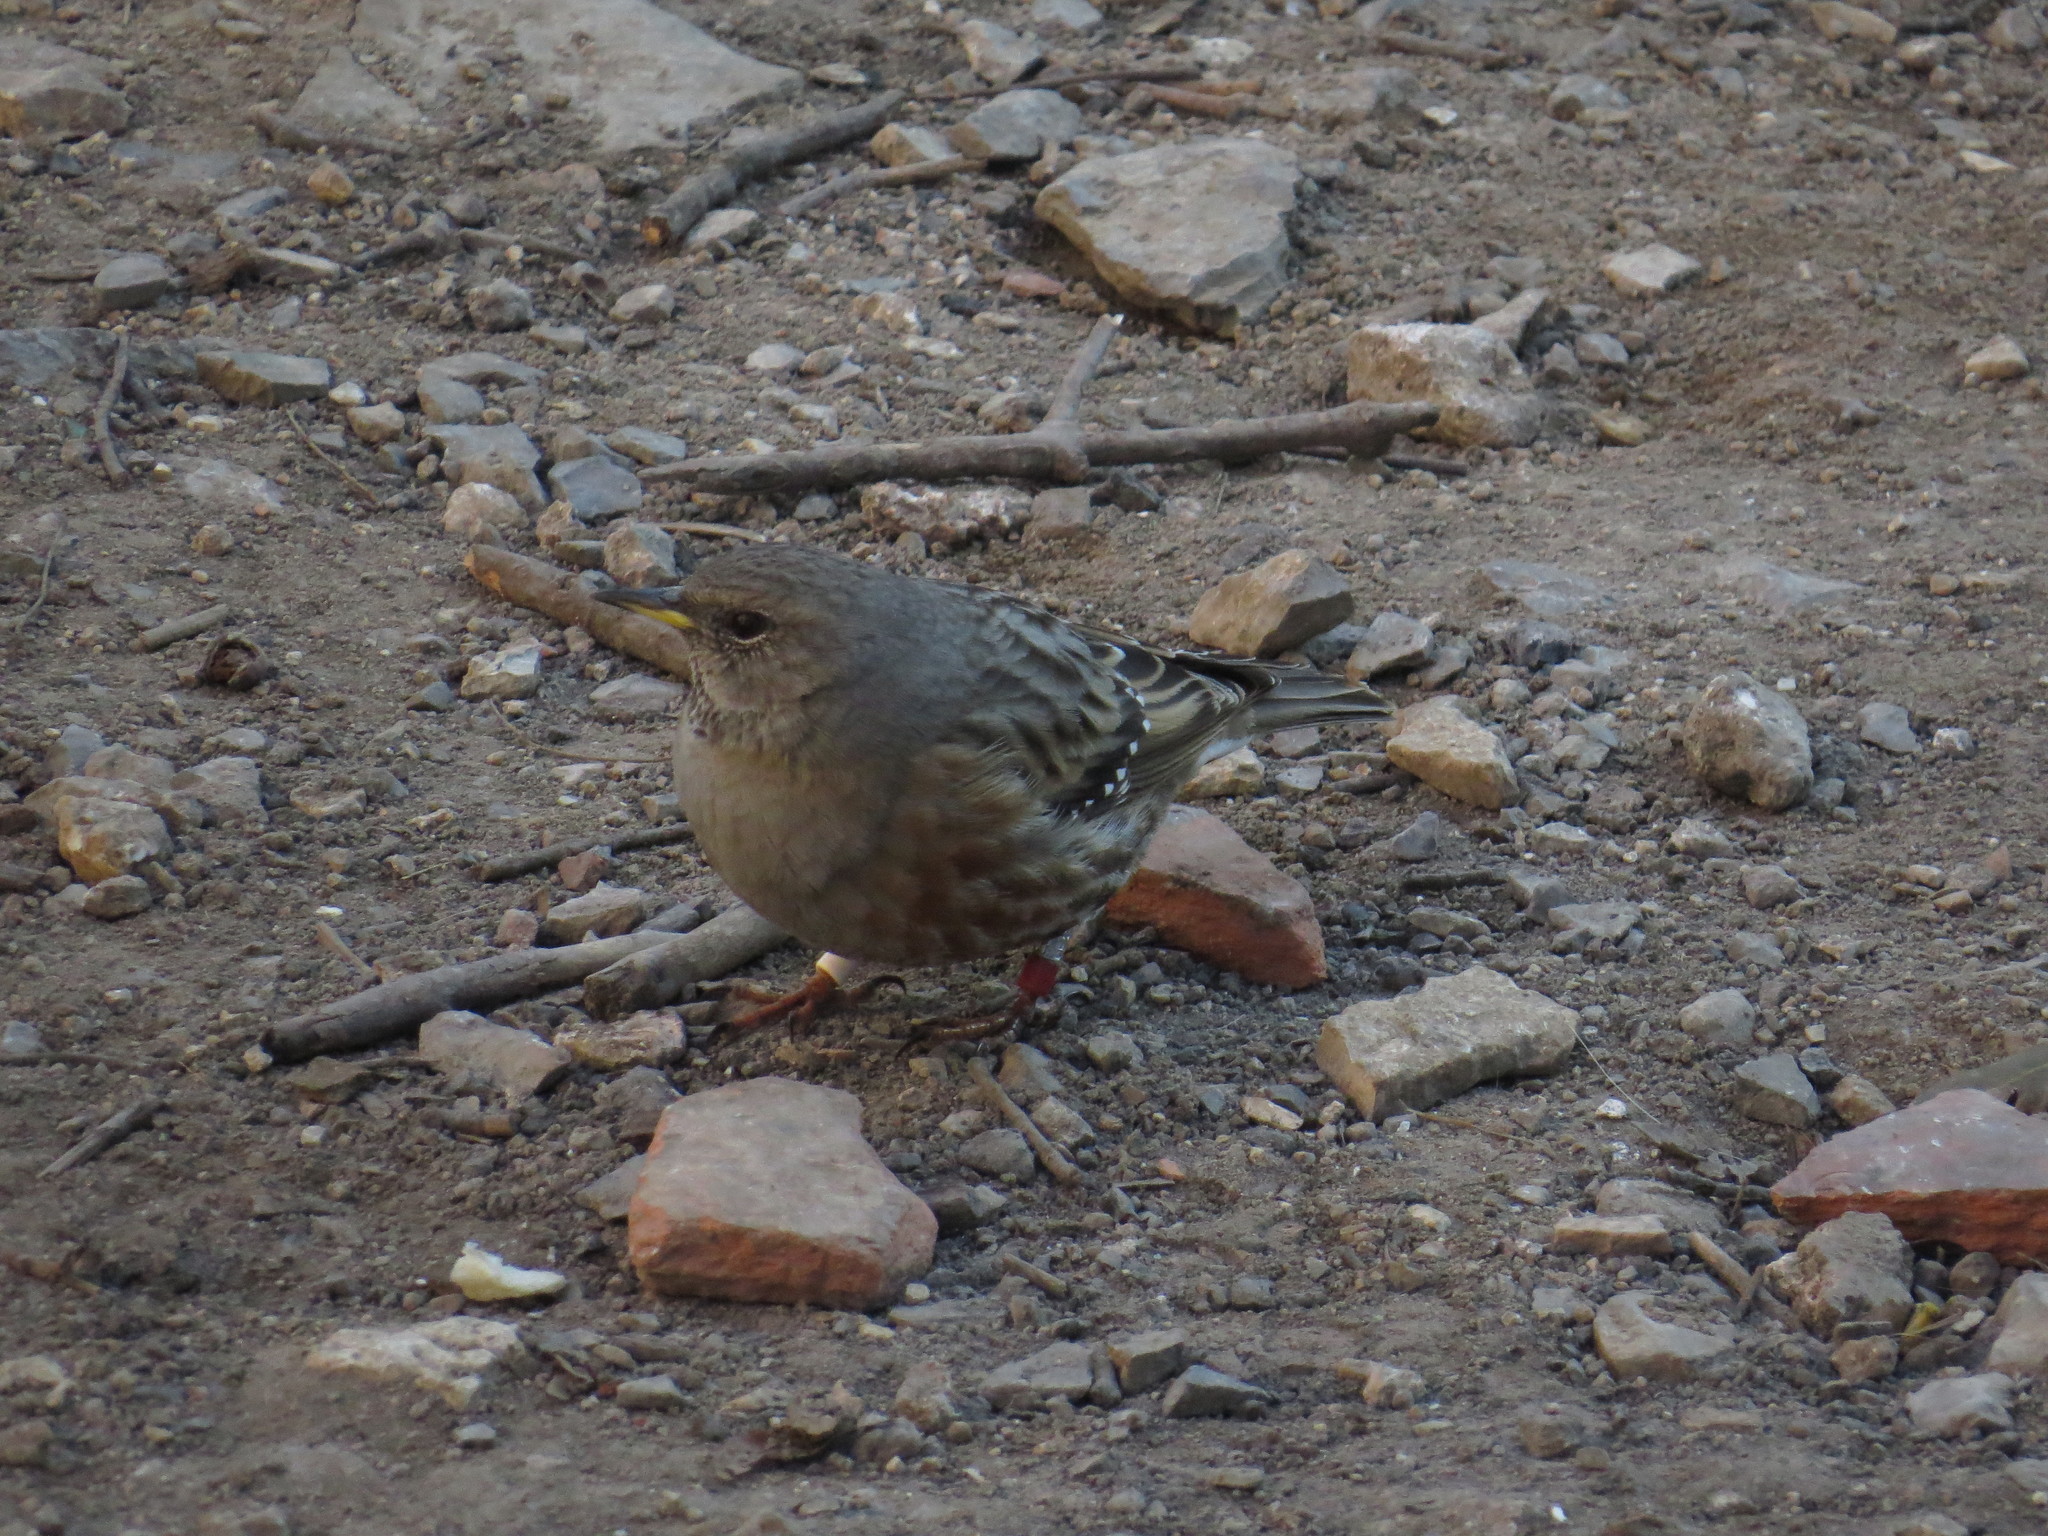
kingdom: Animalia
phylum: Chordata
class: Aves
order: Passeriformes
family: Prunellidae
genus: Prunella
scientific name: Prunella collaris
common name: Alpine accentor
